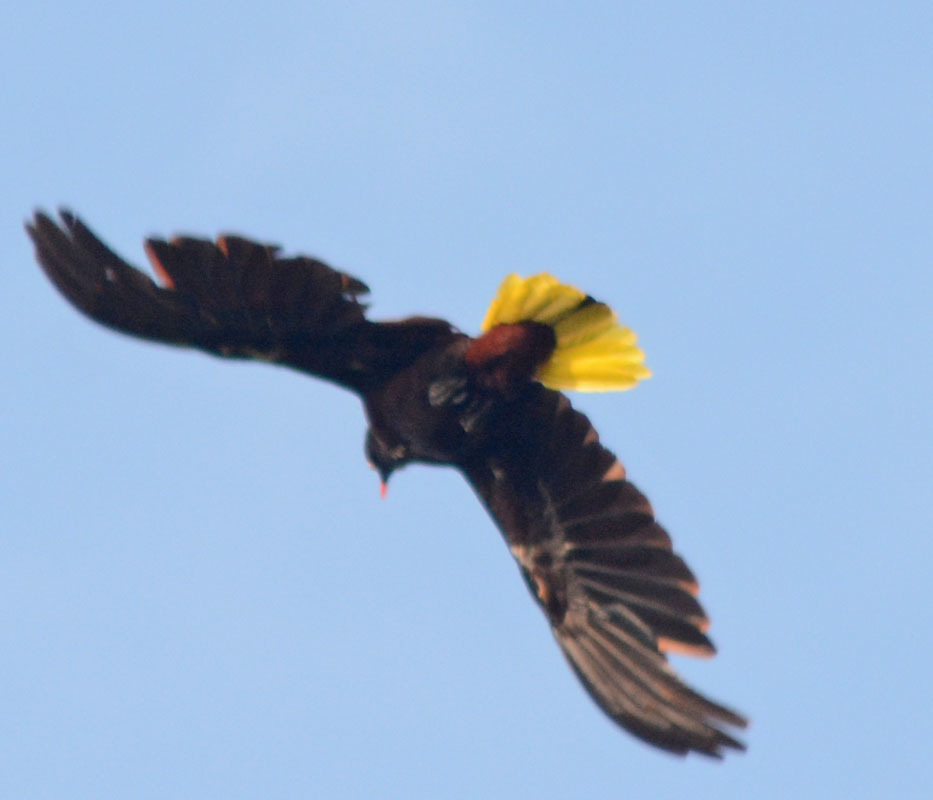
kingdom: Animalia
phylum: Chordata
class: Aves
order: Passeriformes
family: Icteridae
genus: Psarocolius
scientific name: Psarocolius montezuma
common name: Montezuma oropendola
